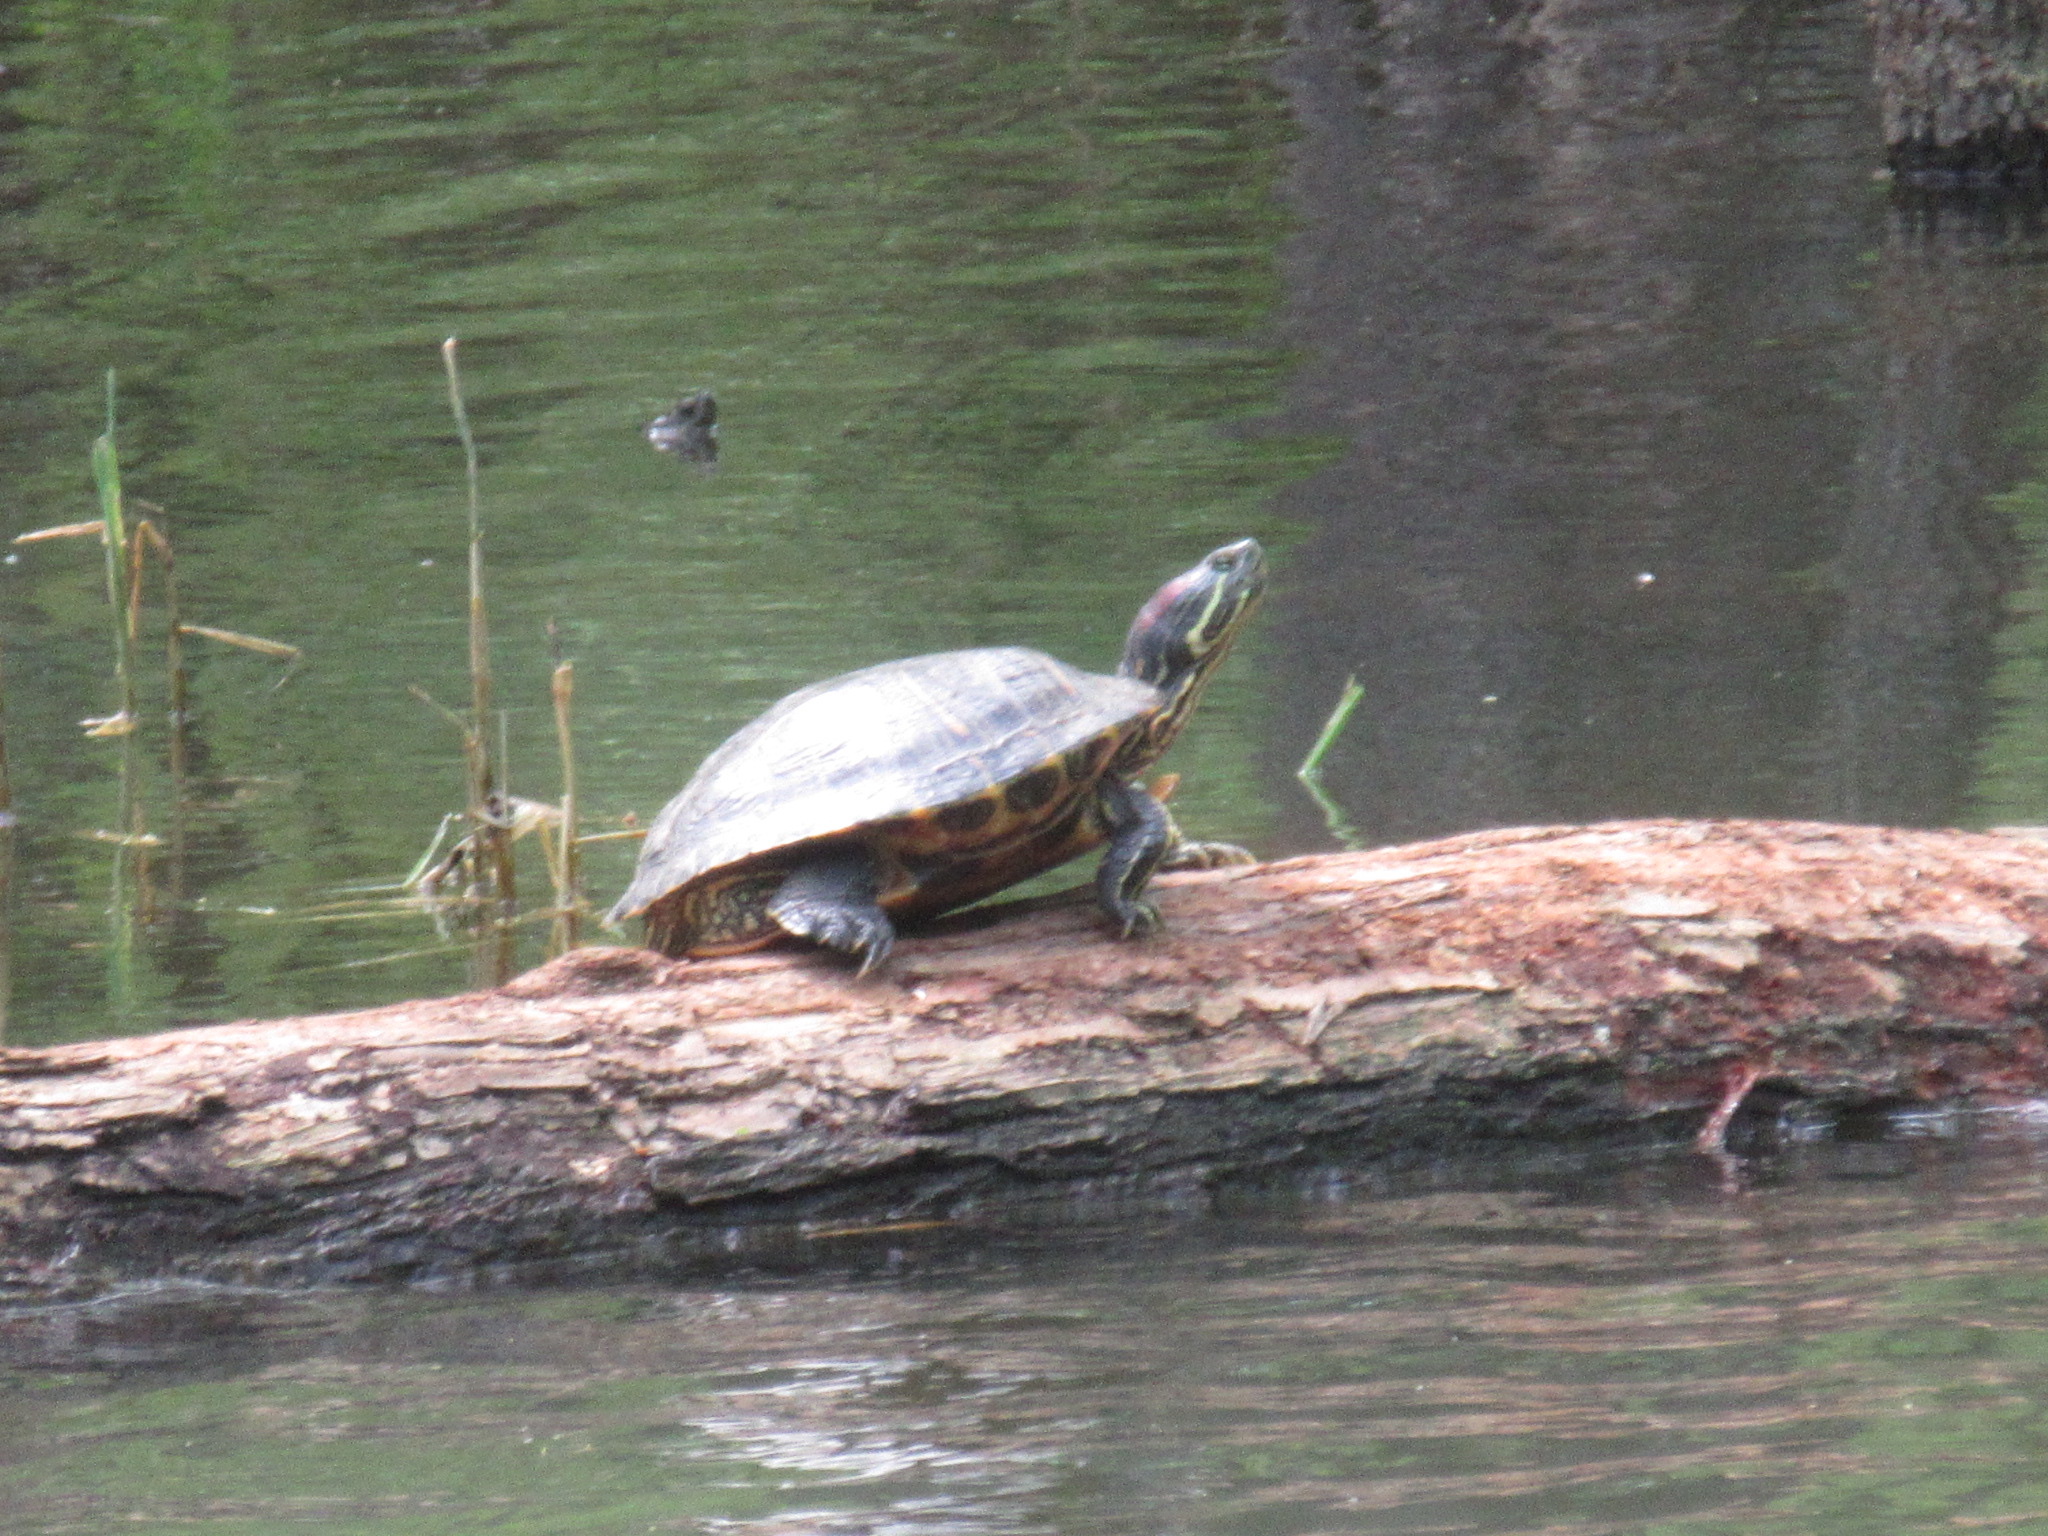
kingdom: Animalia
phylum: Chordata
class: Testudines
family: Emydidae
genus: Trachemys
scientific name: Trachemys scripta
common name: Slider
